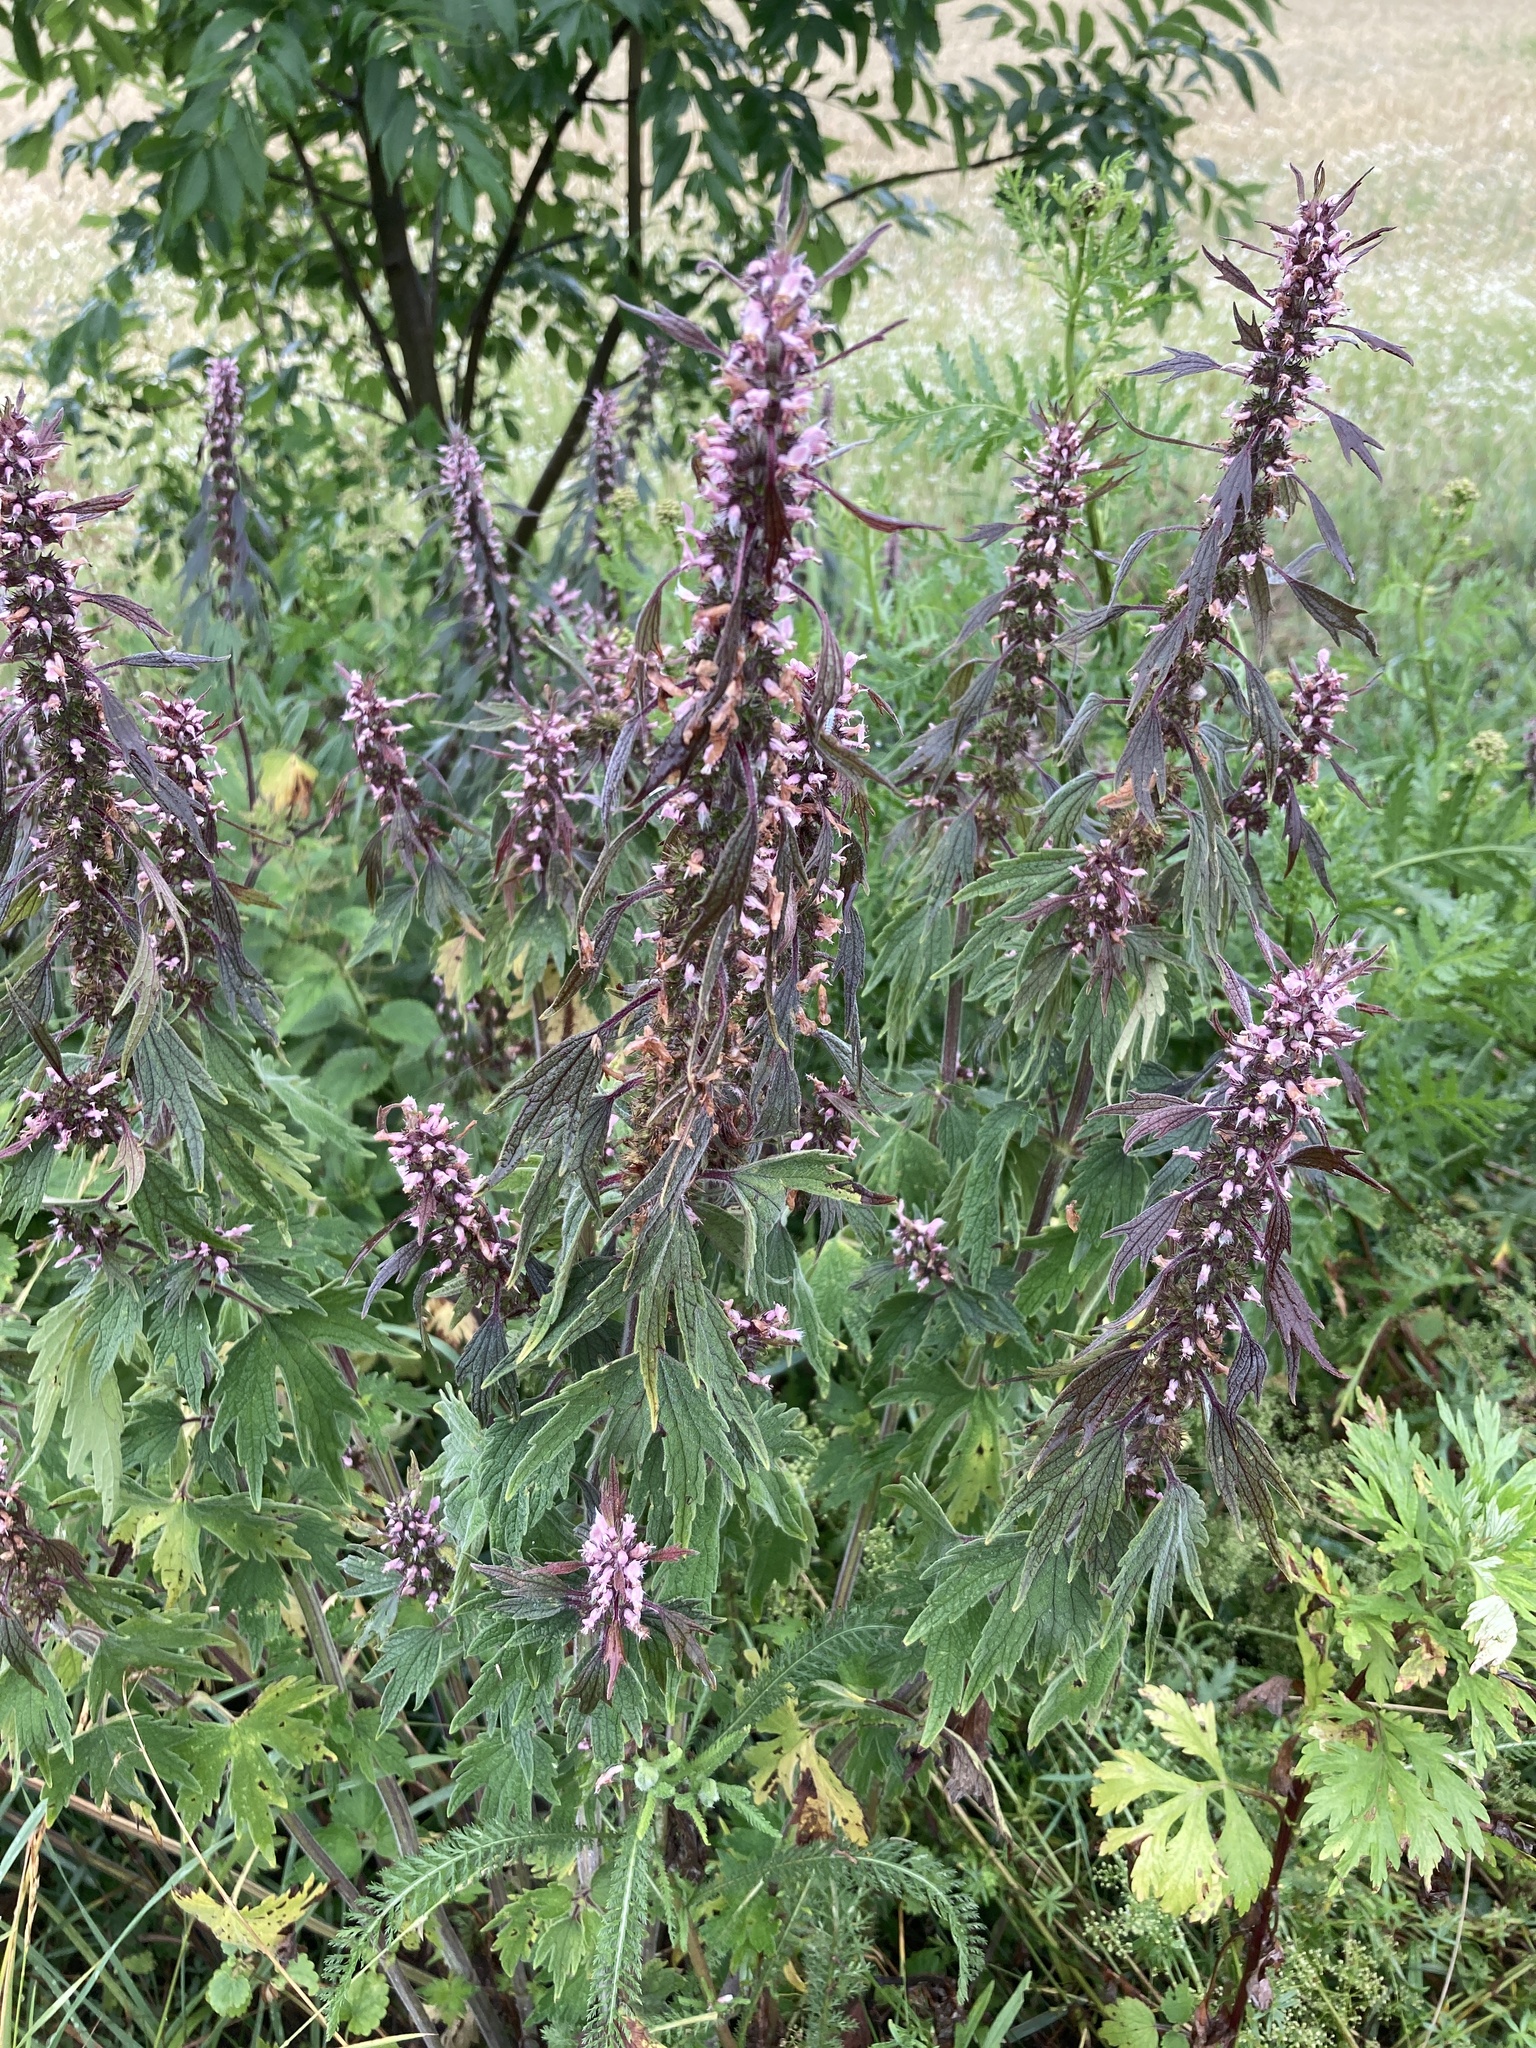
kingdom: Plantae
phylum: Tracheophyta
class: Magnoliopsida
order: Lamiales
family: Lamiaceae
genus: Leonurus
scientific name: Leonurus quinquelobatus
